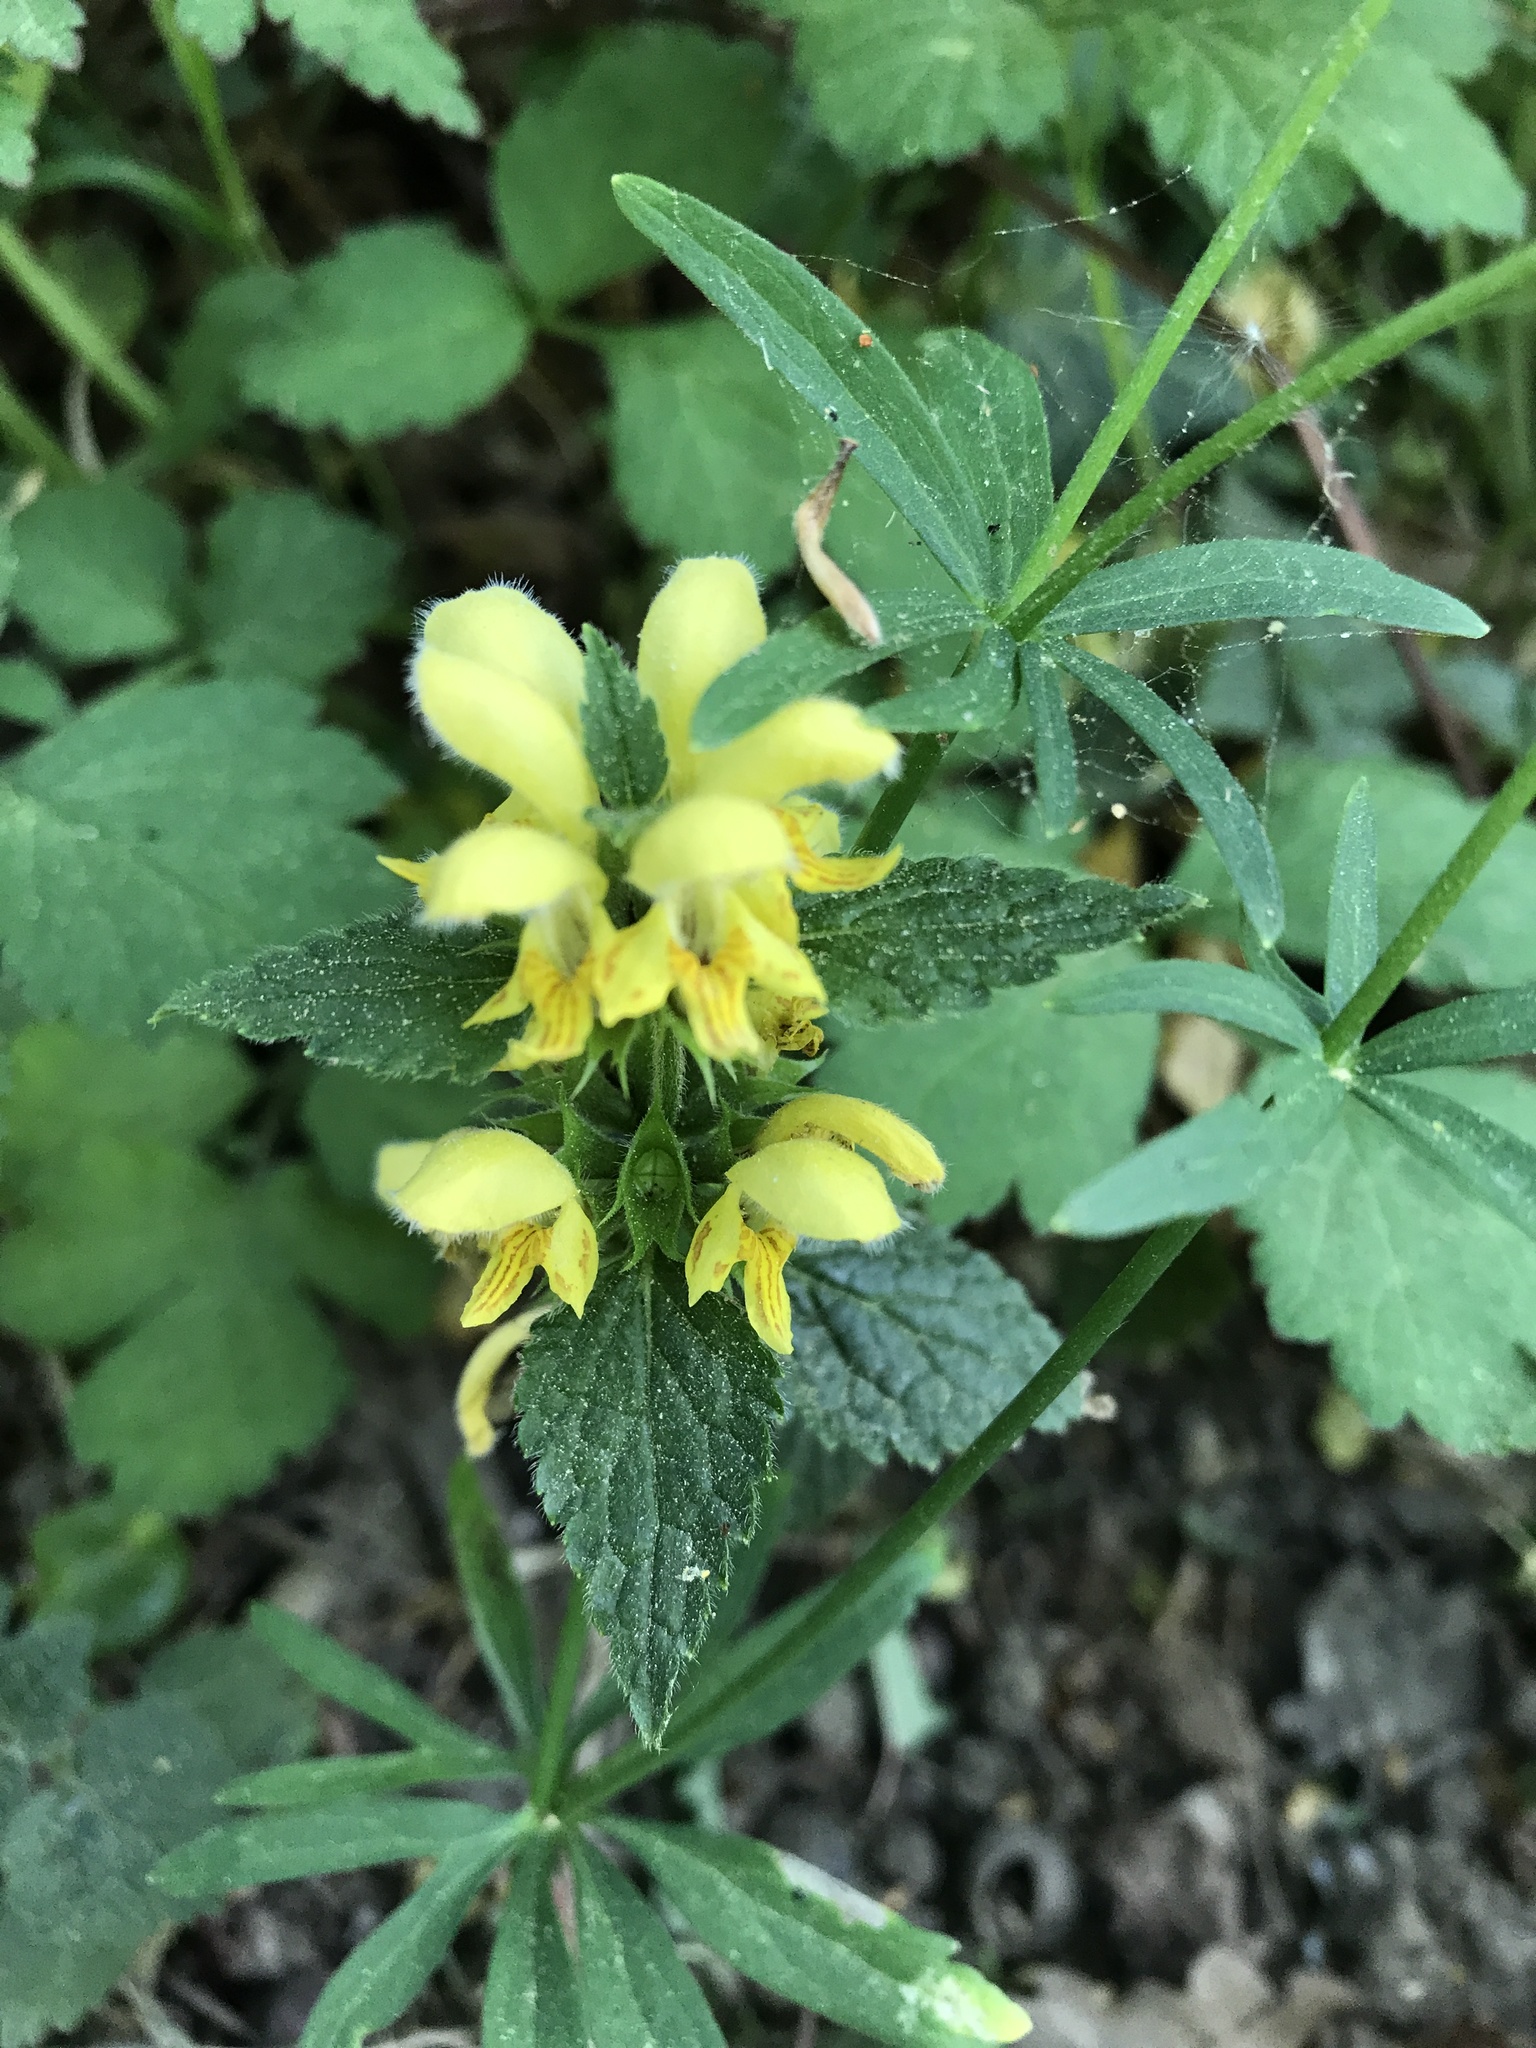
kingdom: Plantae
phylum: Tracheophyta
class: Magnoliopsida
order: Lamiales
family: Lamiaceae
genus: Lamium
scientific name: Lamium galeobdolon
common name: Yellow archangel
